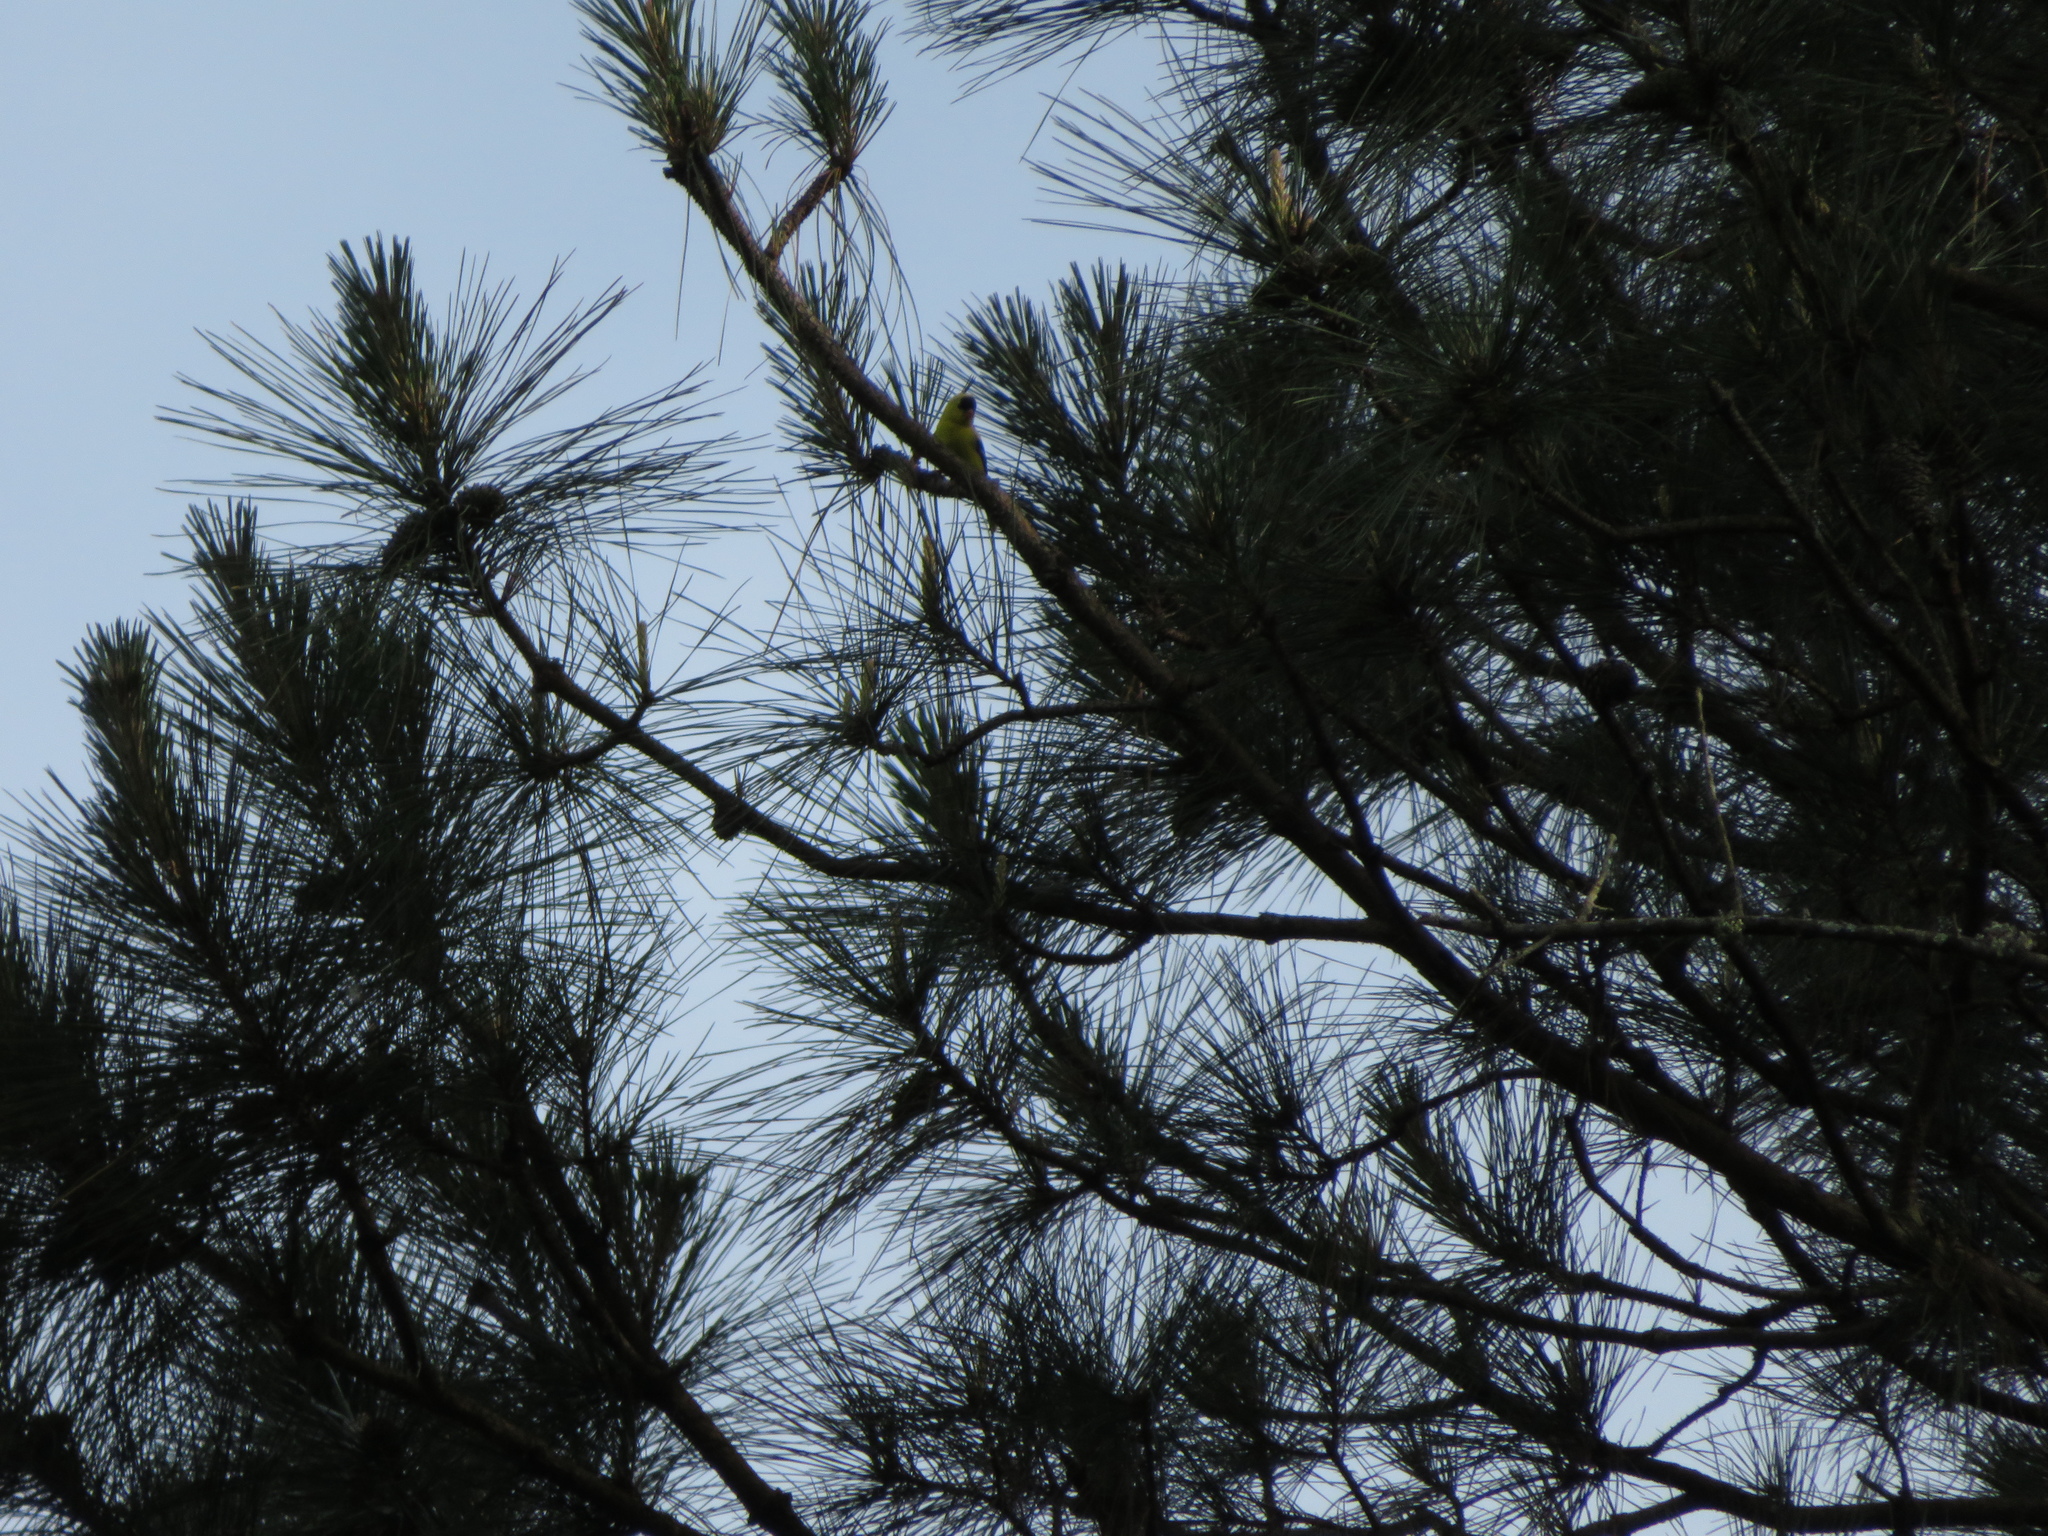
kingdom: Animalia
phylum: Chordata
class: Aves
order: Passeriformes
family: Fringillidae
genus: Spinus
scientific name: Spinus tristis
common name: American goldfinch
